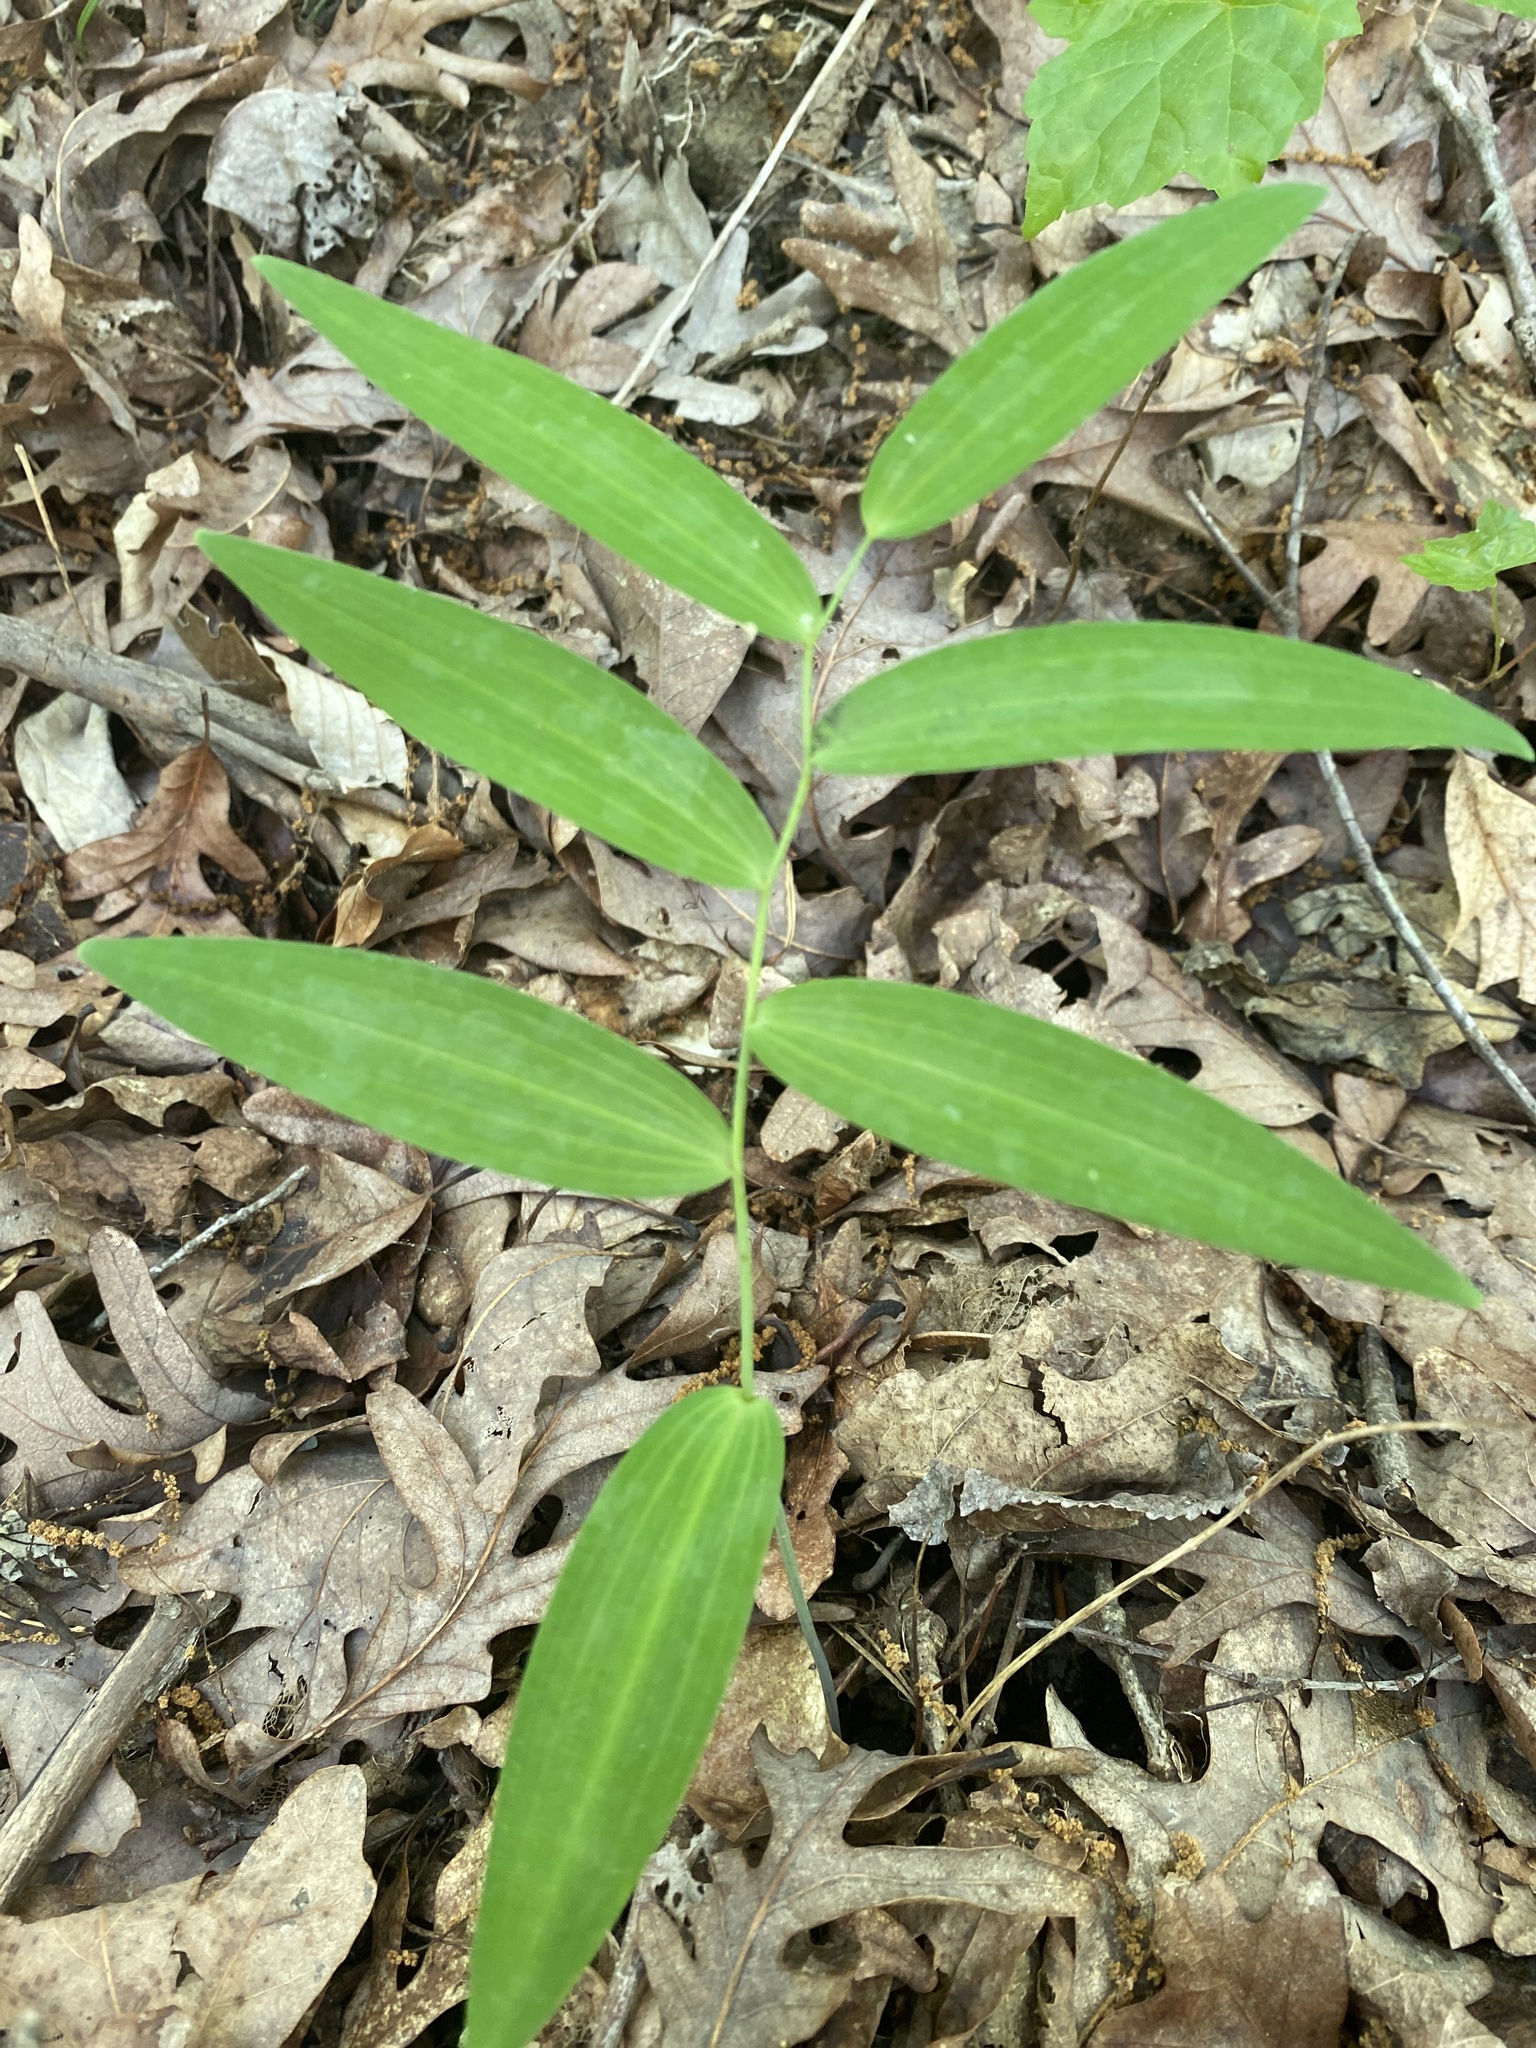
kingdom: Plantae
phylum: Tracheophyta
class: Liliopsida
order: Asparagales
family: Asparagaceae
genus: Polygonatum
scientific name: Polygonatum biflorum
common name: American solomon's-seal
